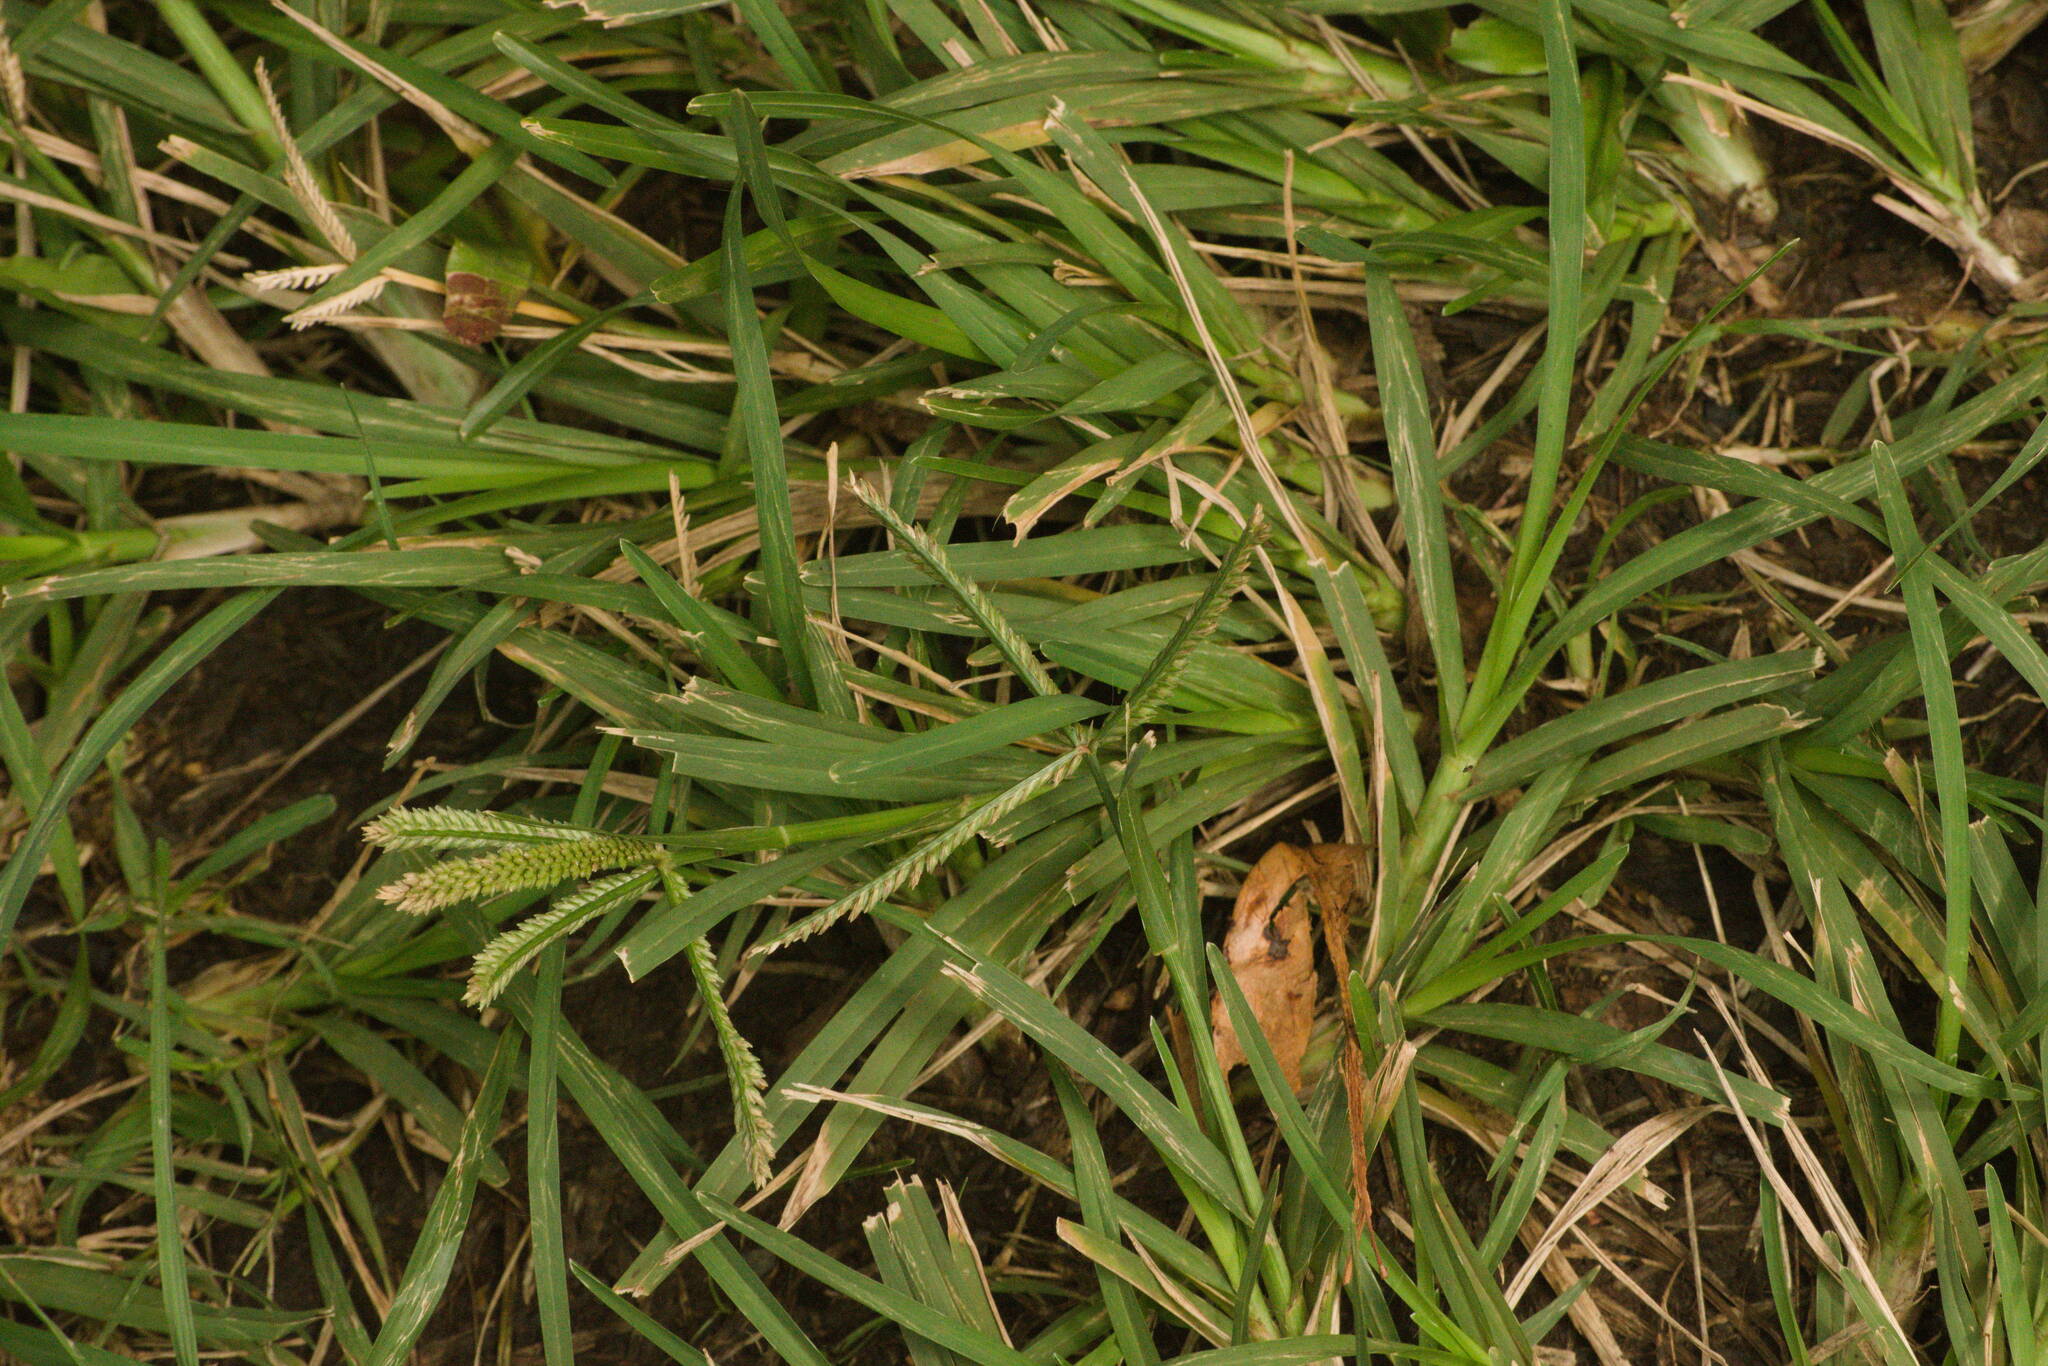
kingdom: Plantae
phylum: Tracheophyta
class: Liliopsida
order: Poales
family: Poaceae
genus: Eleusine
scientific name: Eleusine indica
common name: Yard-grass
